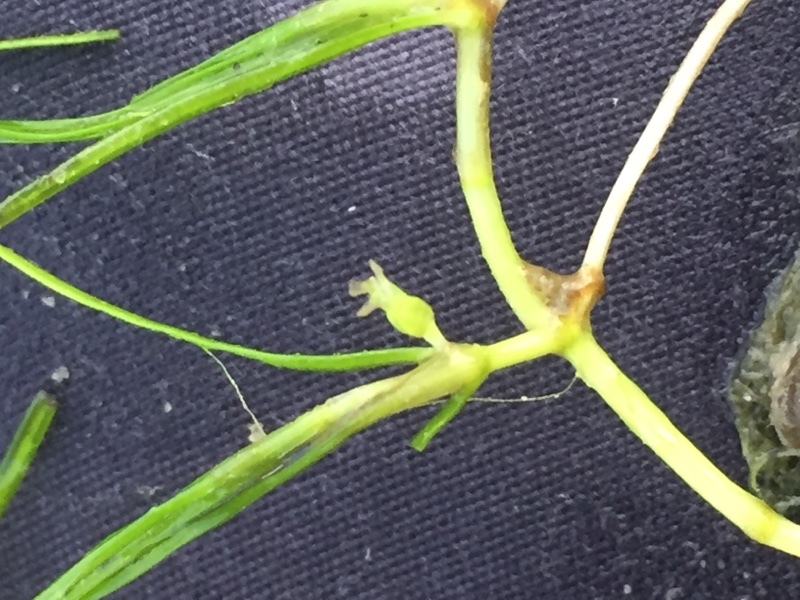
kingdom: Plantae
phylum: Tracheophyta
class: Liliopsida
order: Alismatales
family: Potamogetonaceae
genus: Zannichellia
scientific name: Zannichellia palustris
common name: Horned pondweed
